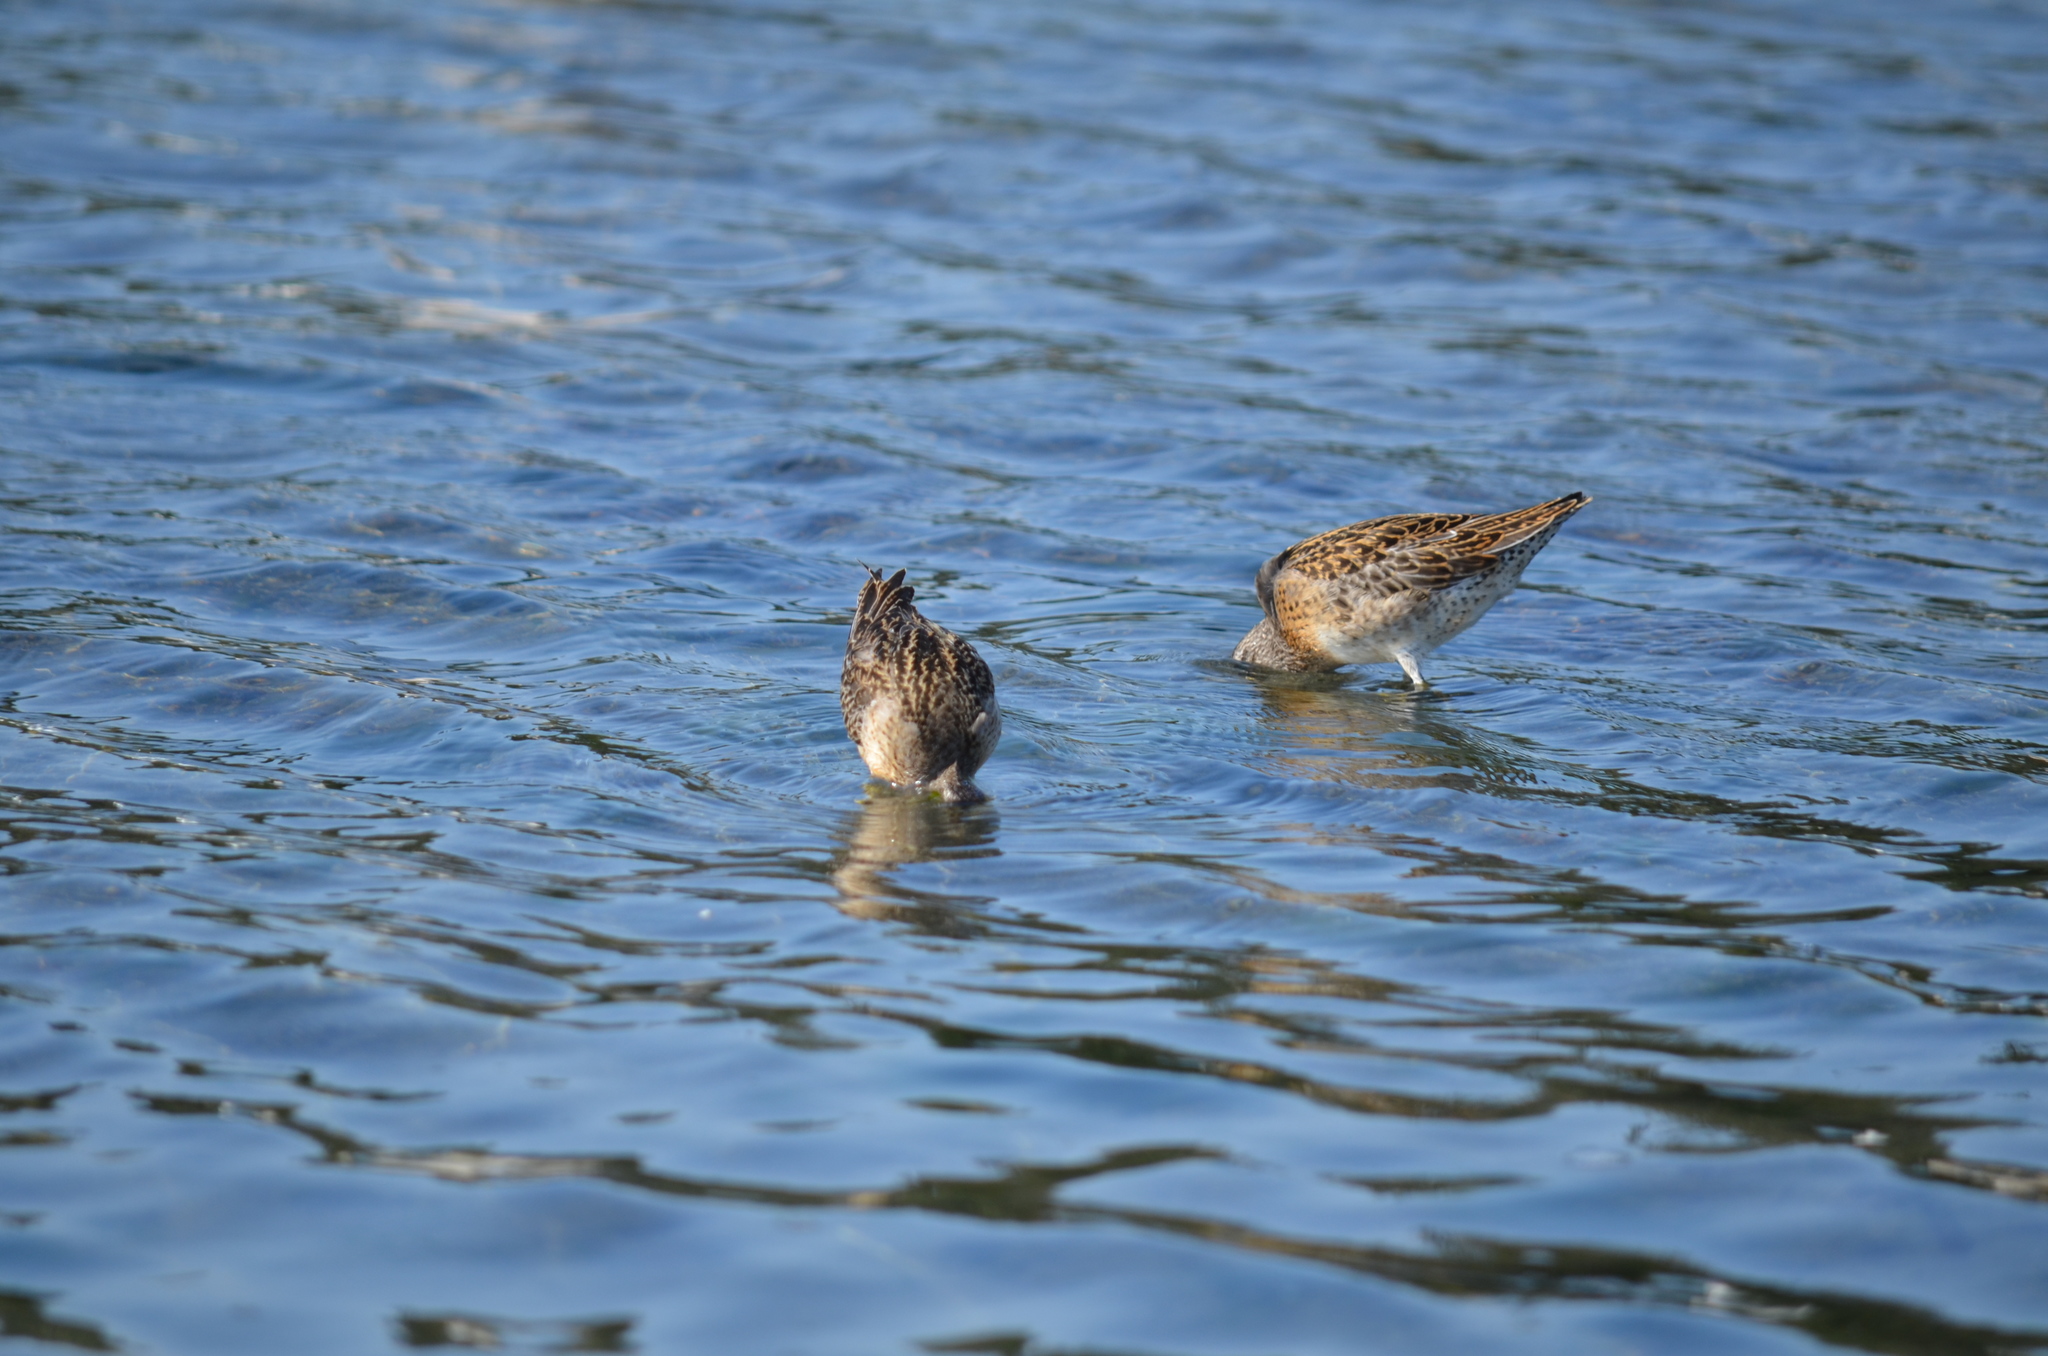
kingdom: Animalia
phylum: Chordata
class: Aves
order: Charadriiformes
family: Scolopacidae
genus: Limnodromus
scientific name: Limnodromus griseus
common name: Short-billed dowitcher
